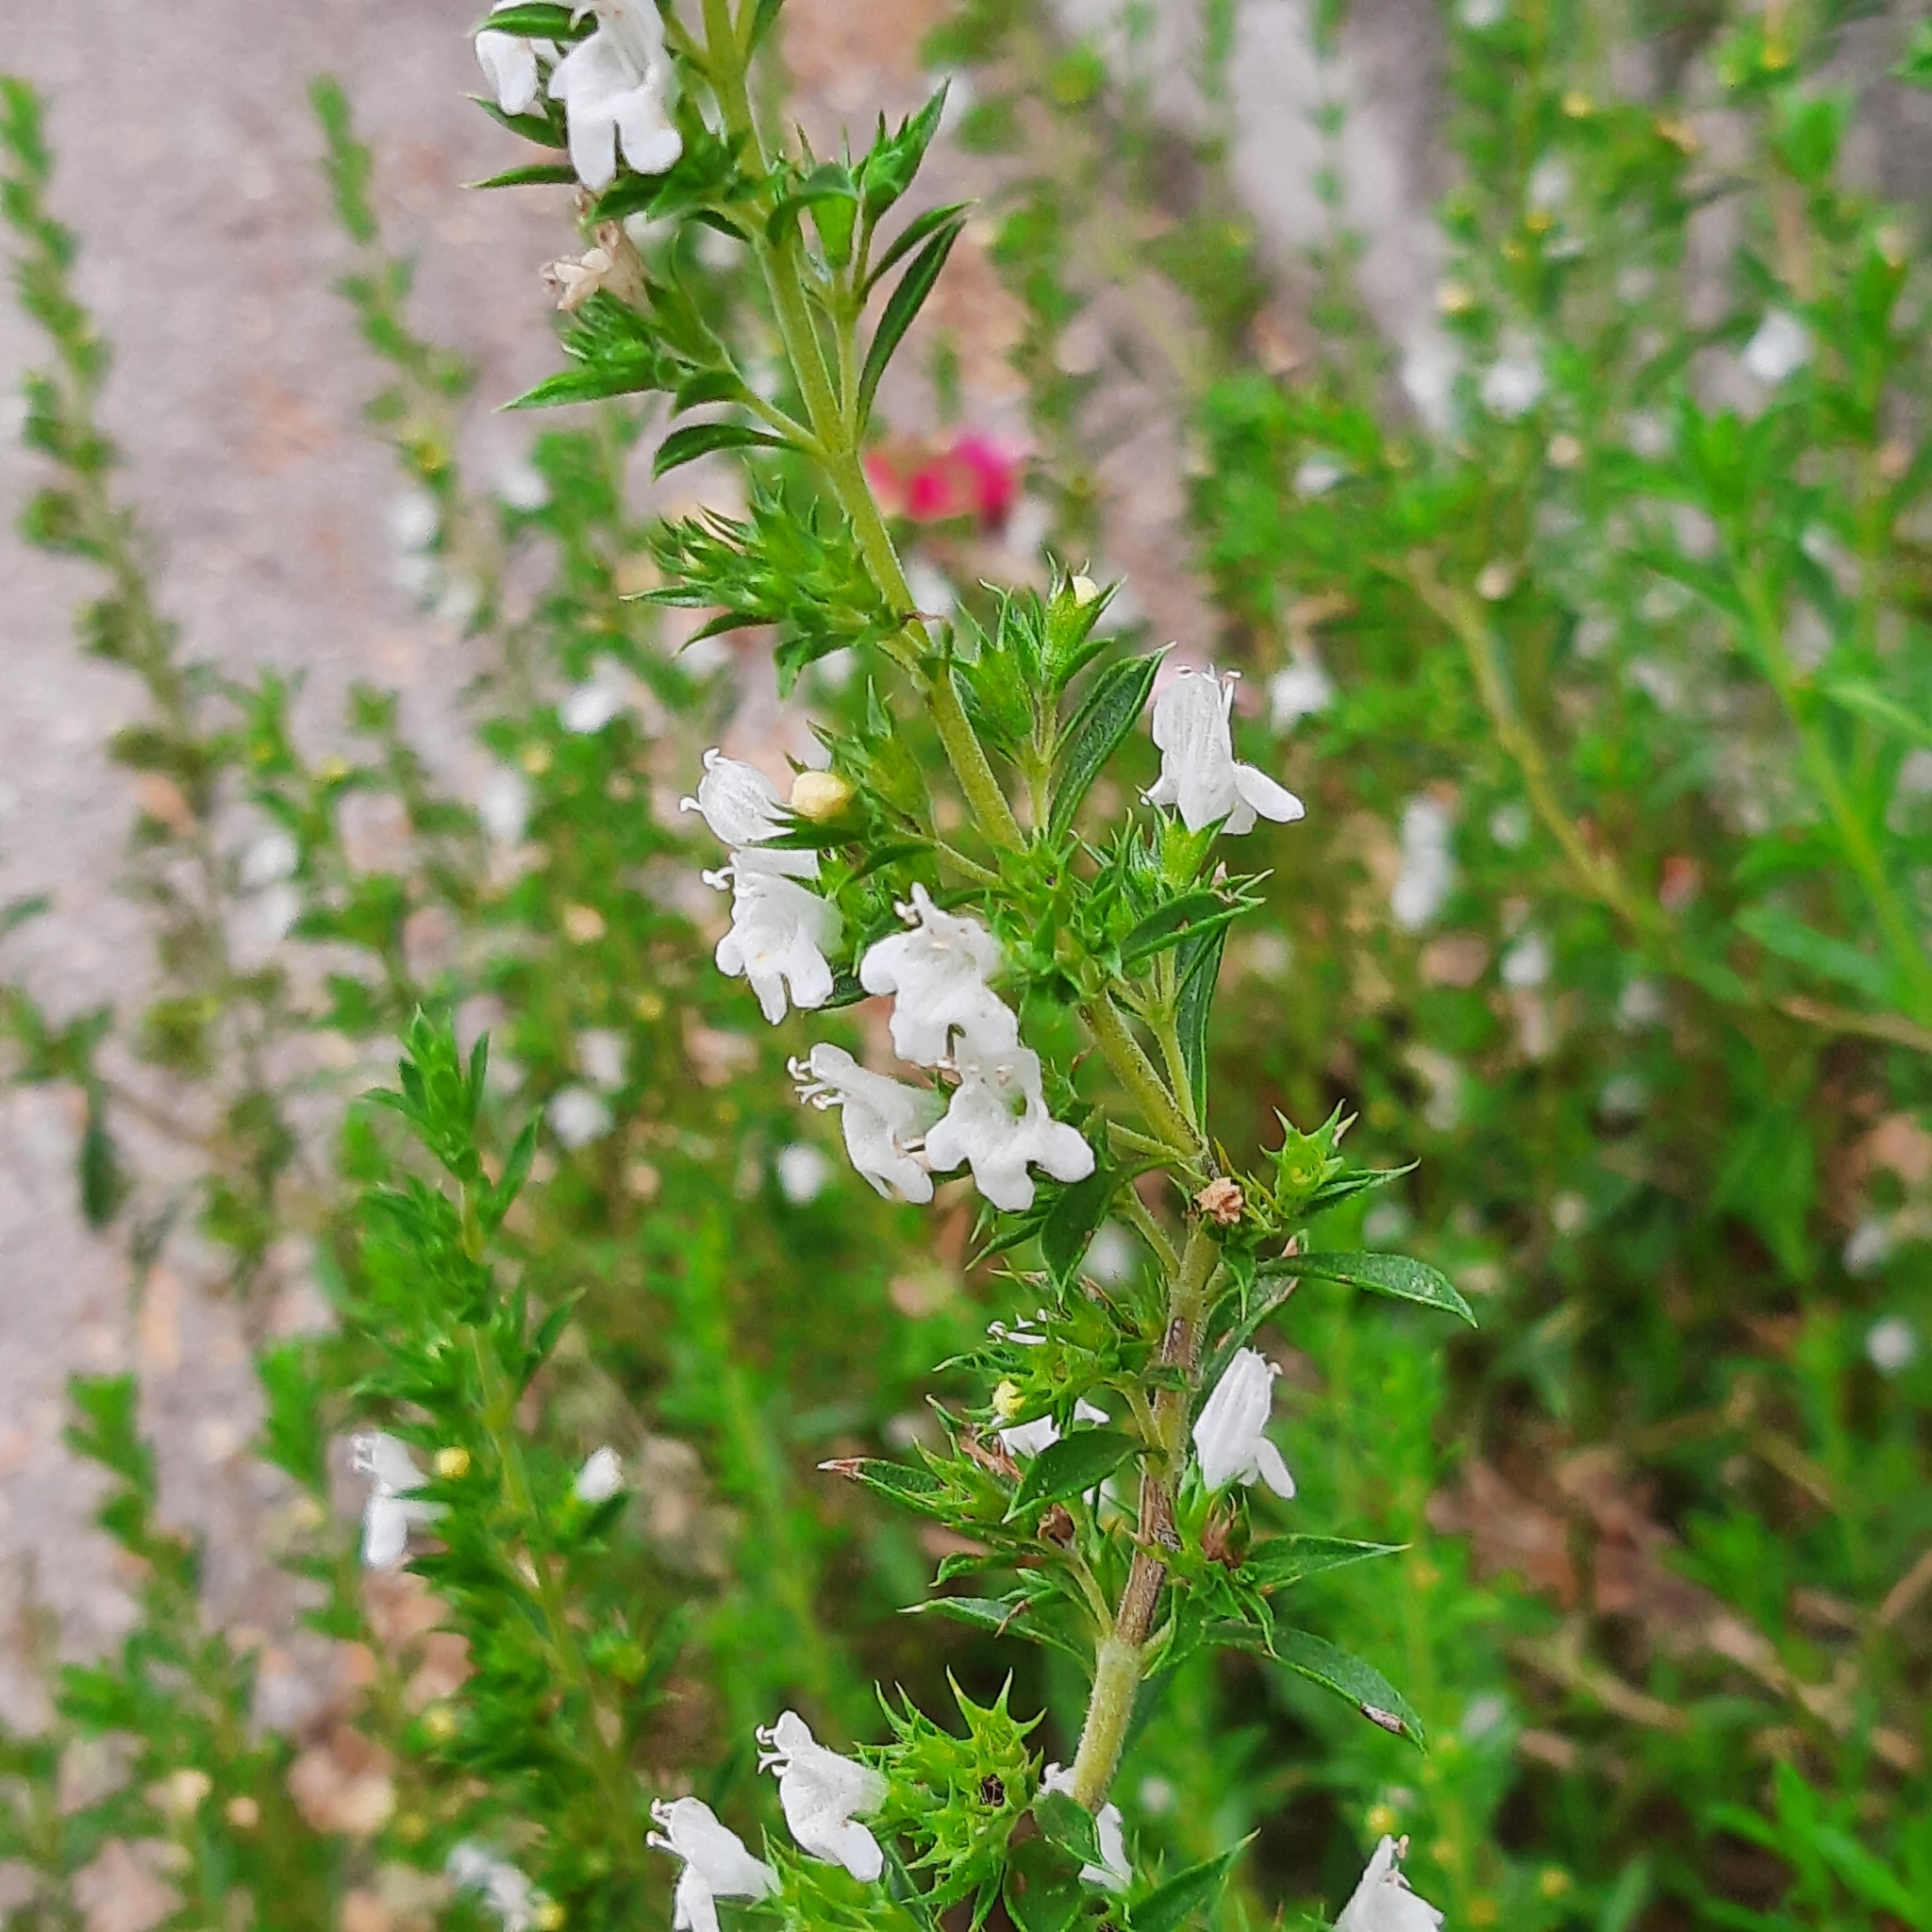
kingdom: Plantae
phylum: Tracheophyta
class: Magnoliopsida
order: Lamiales
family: Lamiaceae
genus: Satureja
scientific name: Satureja montana
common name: Winter savory
